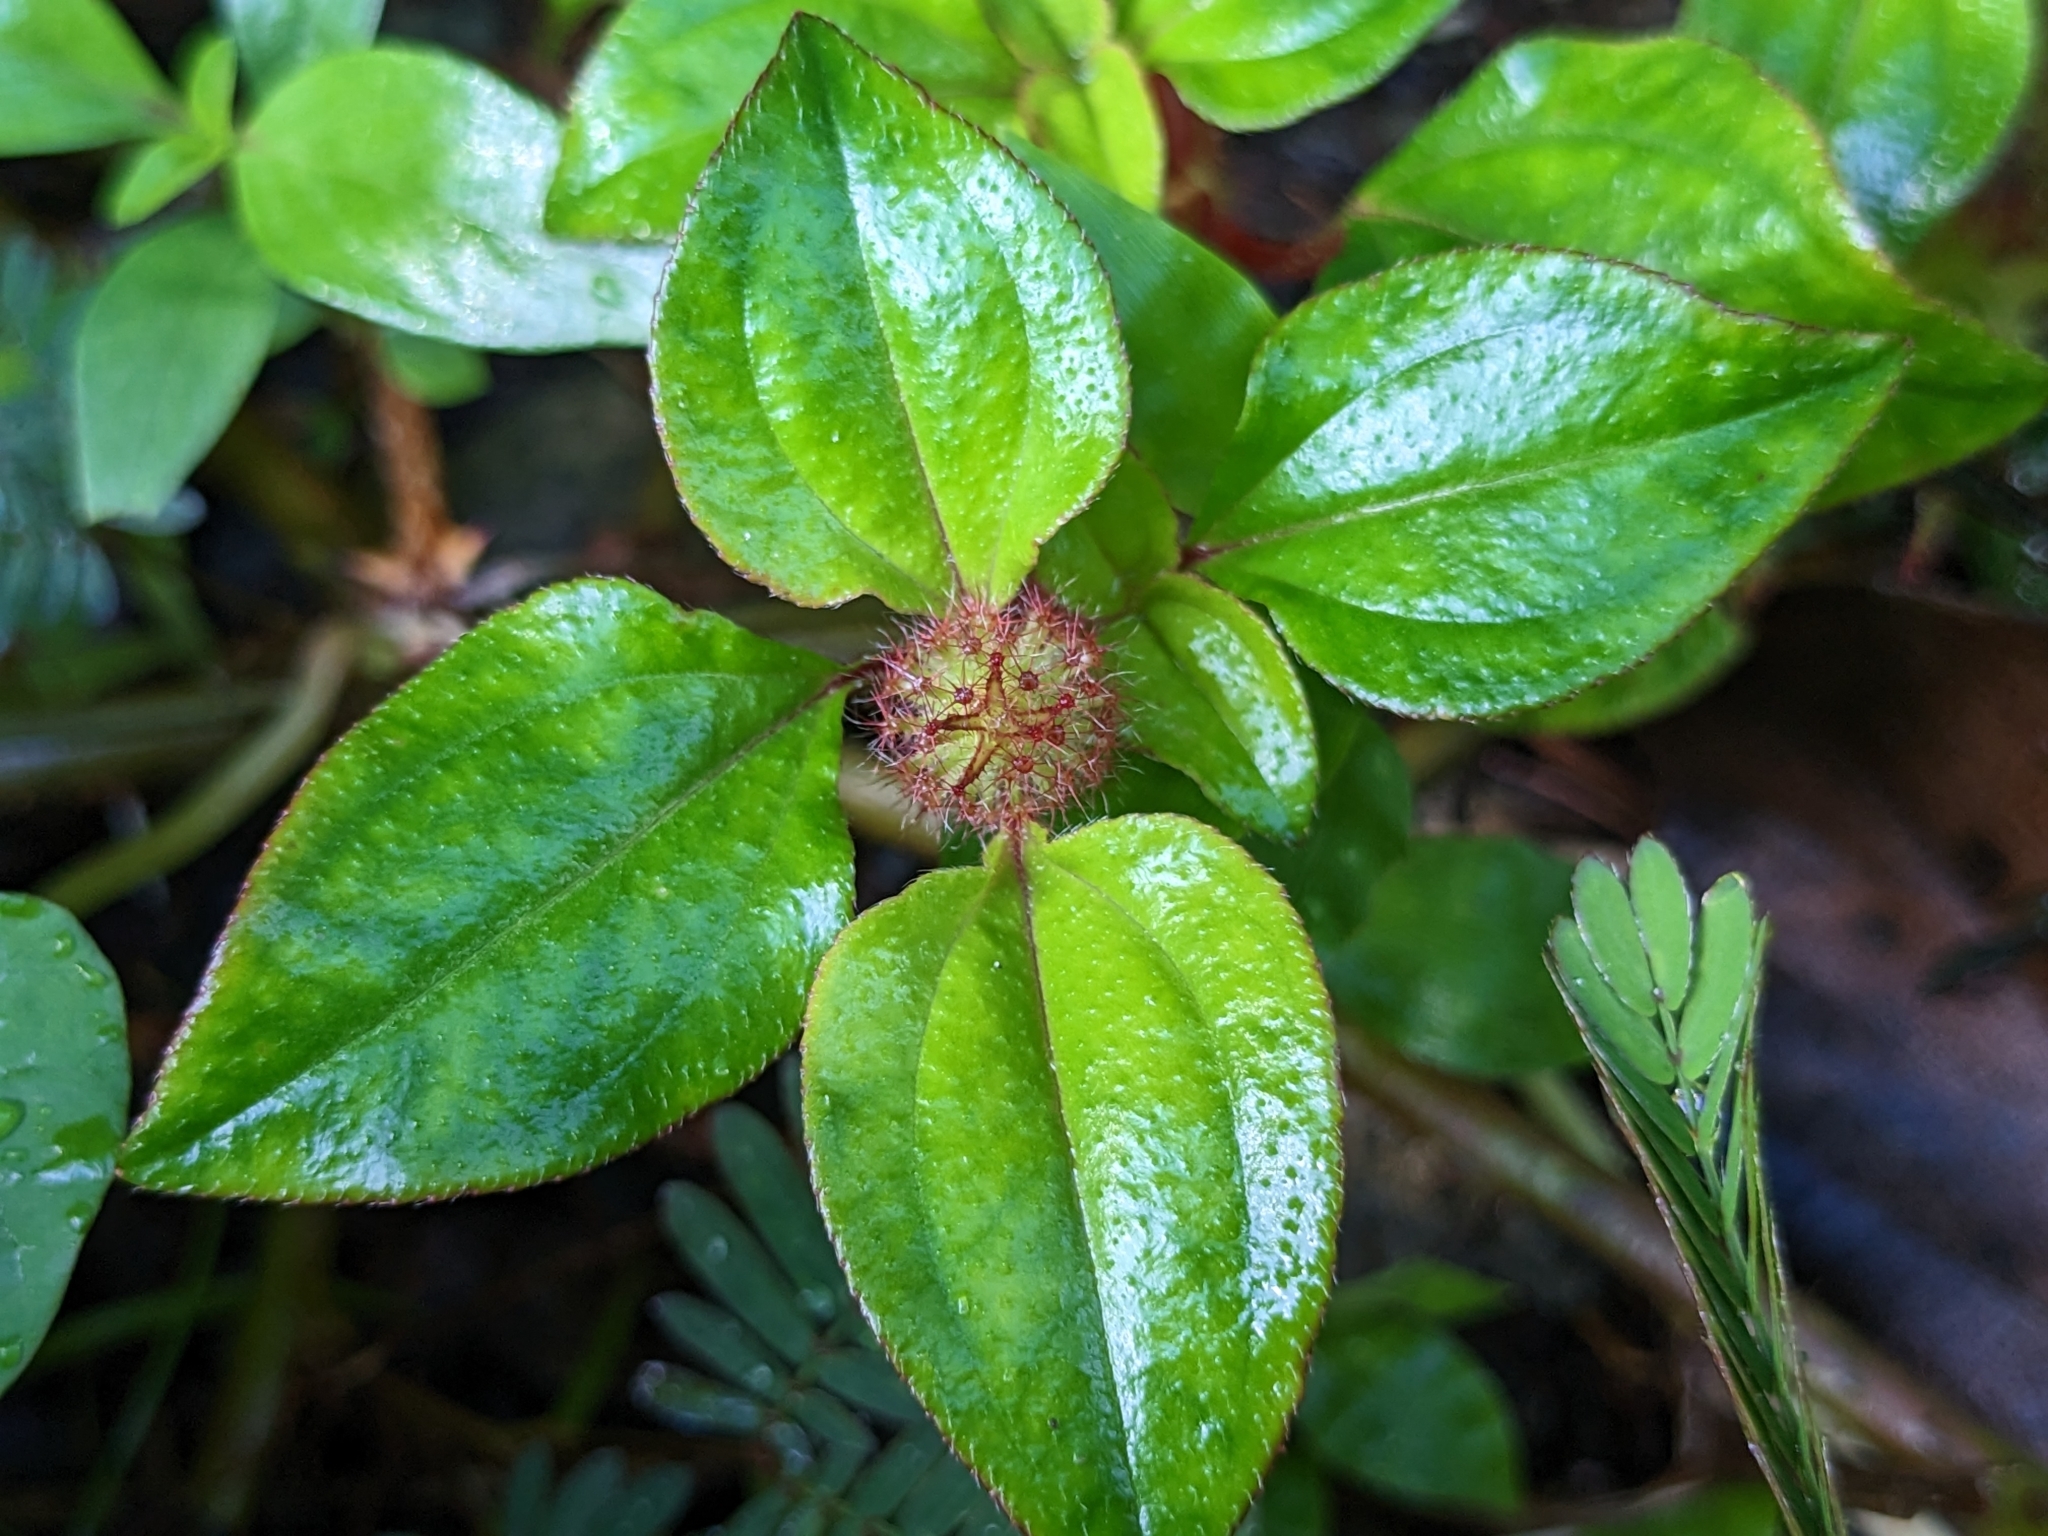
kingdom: Plantae
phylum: Tracheophyta
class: Magnoliopsida
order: Myrtales
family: Melastomataceae
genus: Heterotis
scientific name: Heterotis rotundifolia
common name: Pinklady
